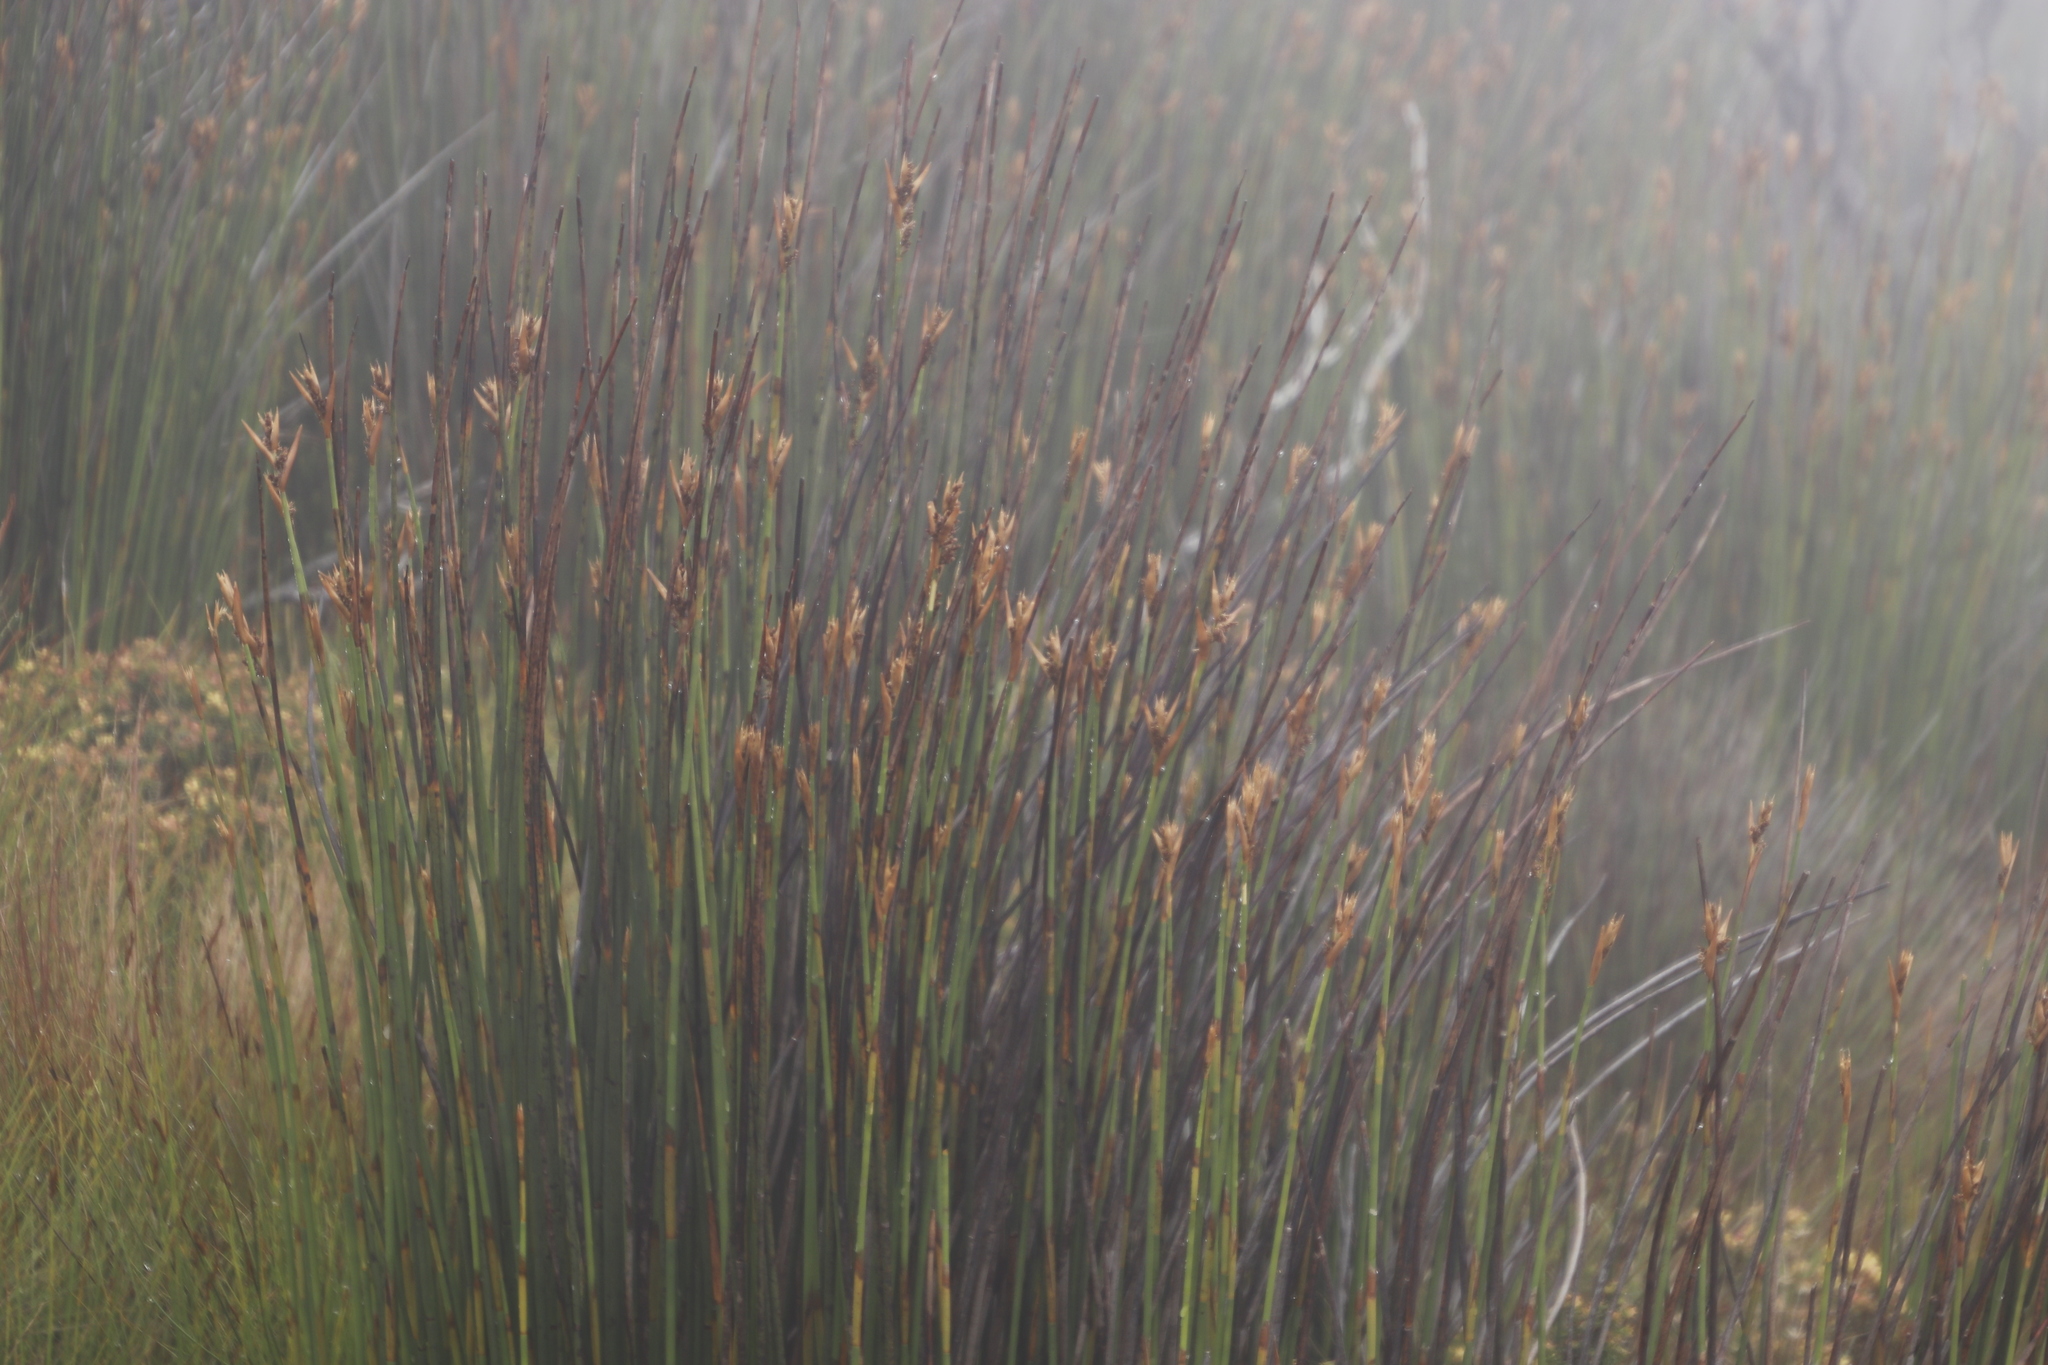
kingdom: Plantae
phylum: Tracheophyta
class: Liliopsida
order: Poales
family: Restionaceae
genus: Elegia
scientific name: Elegia mucronata
